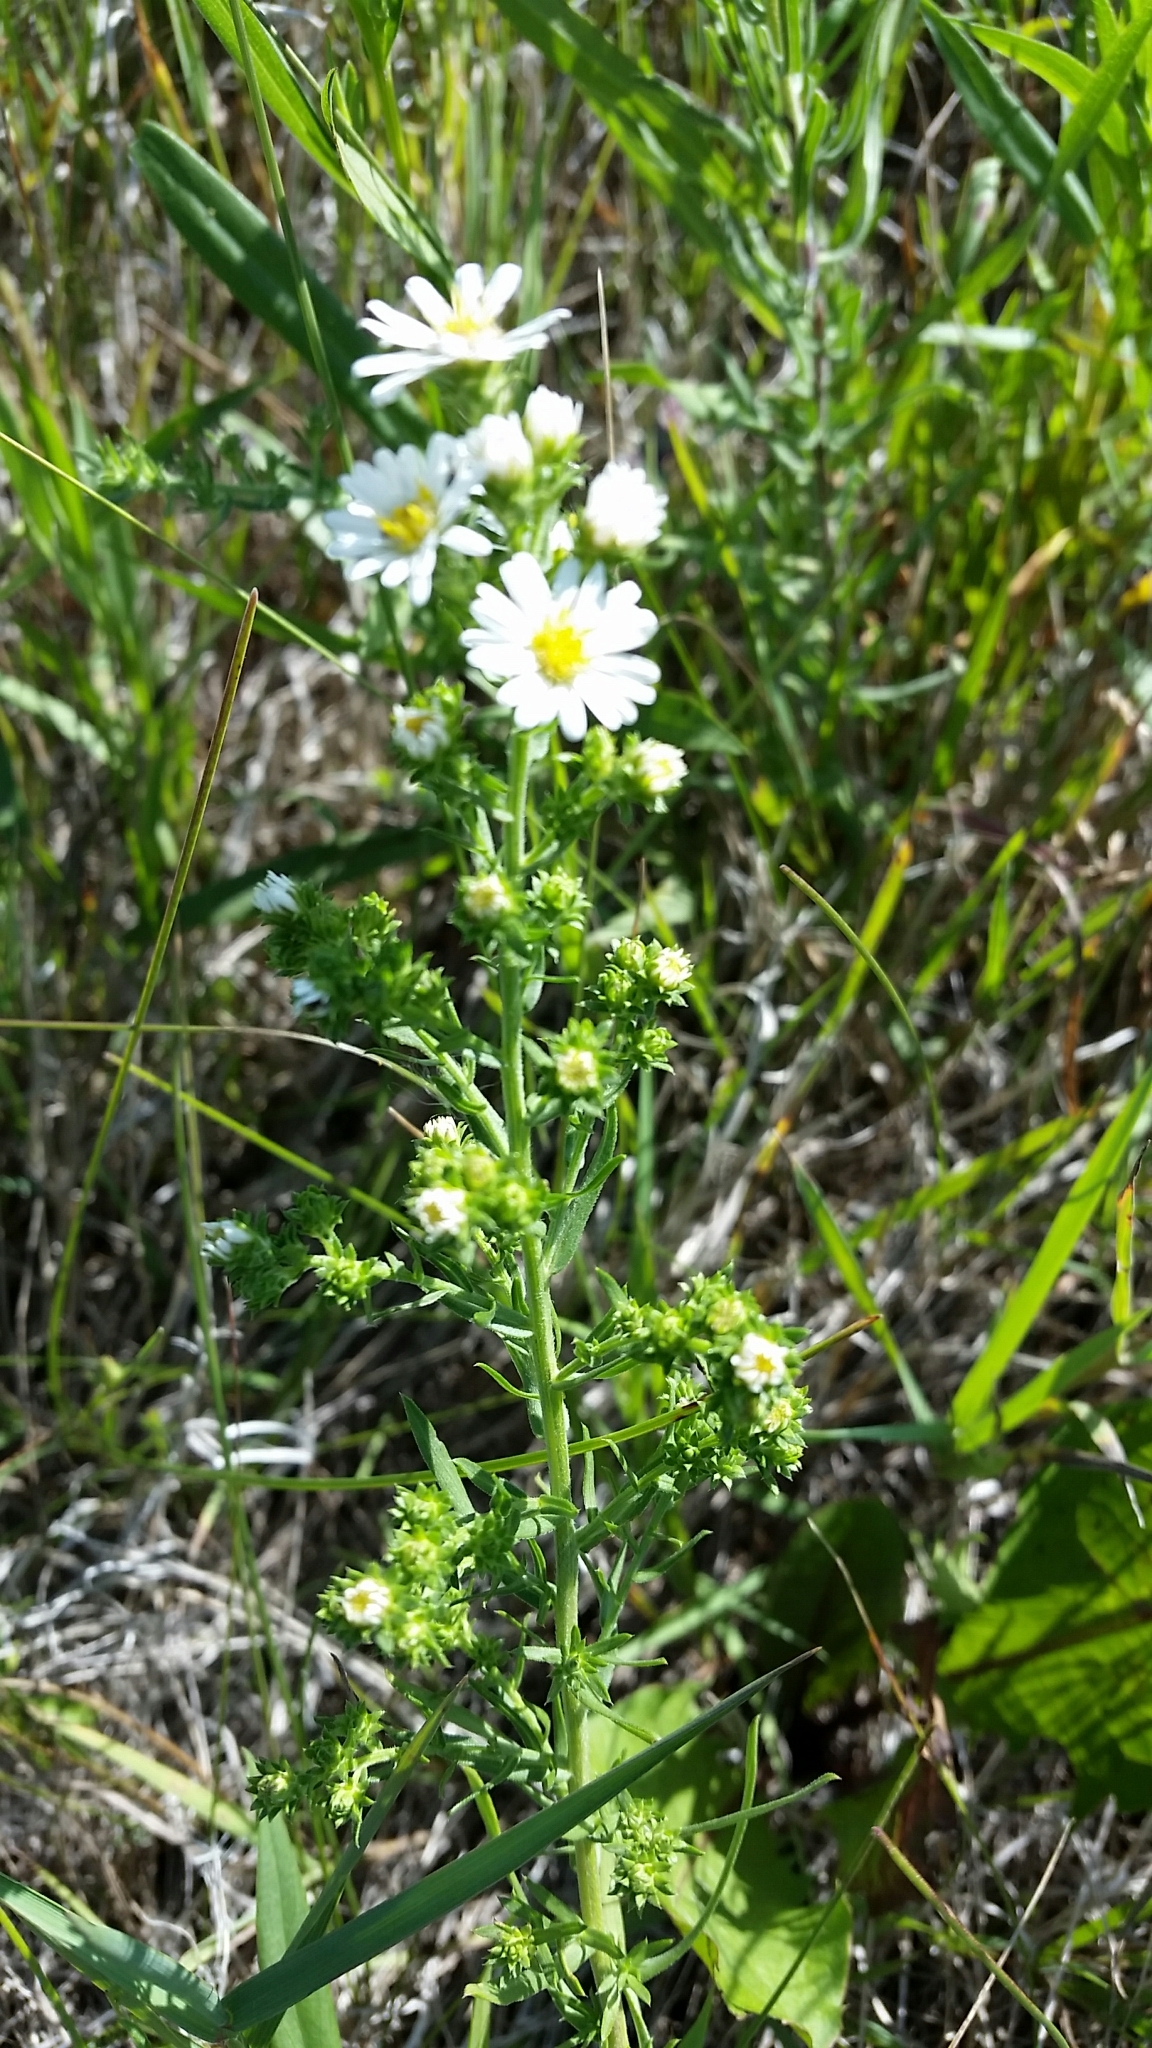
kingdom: Plantae
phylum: Tracheophyta
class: Magnoliopsida
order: Asterales
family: Asteraceae
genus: Symphyotrichum
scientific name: Symphyotrichum ericoides
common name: Heath aster
